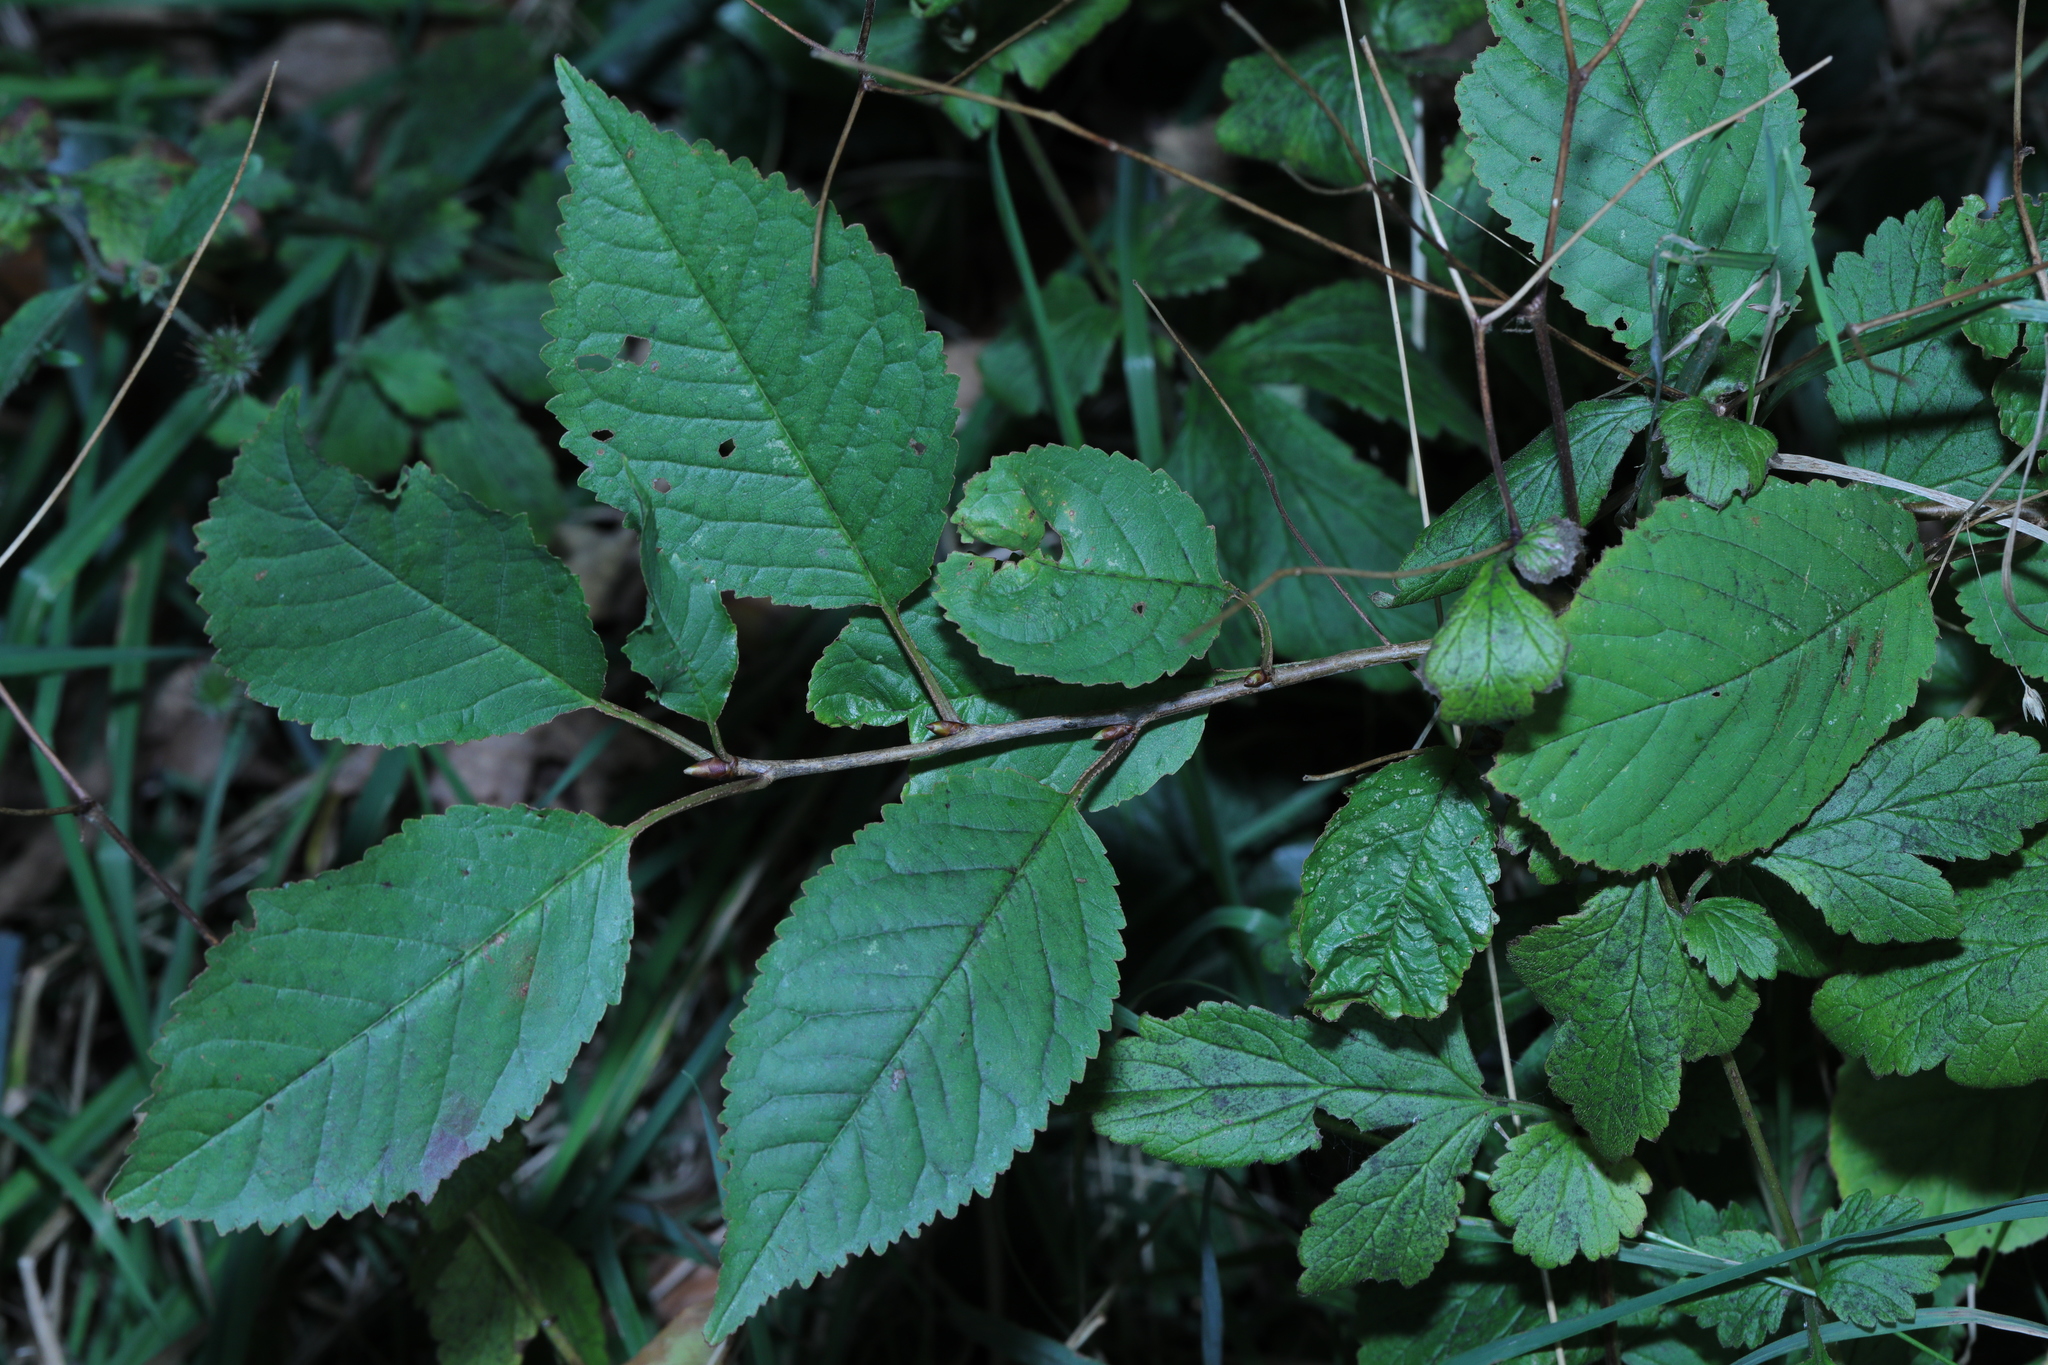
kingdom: Plantae
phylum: Tracheophyta
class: Magnoliopsida
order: Rosales
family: Rosaceae
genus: Prunus
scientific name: Prunus avium
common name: Sweet cherry
